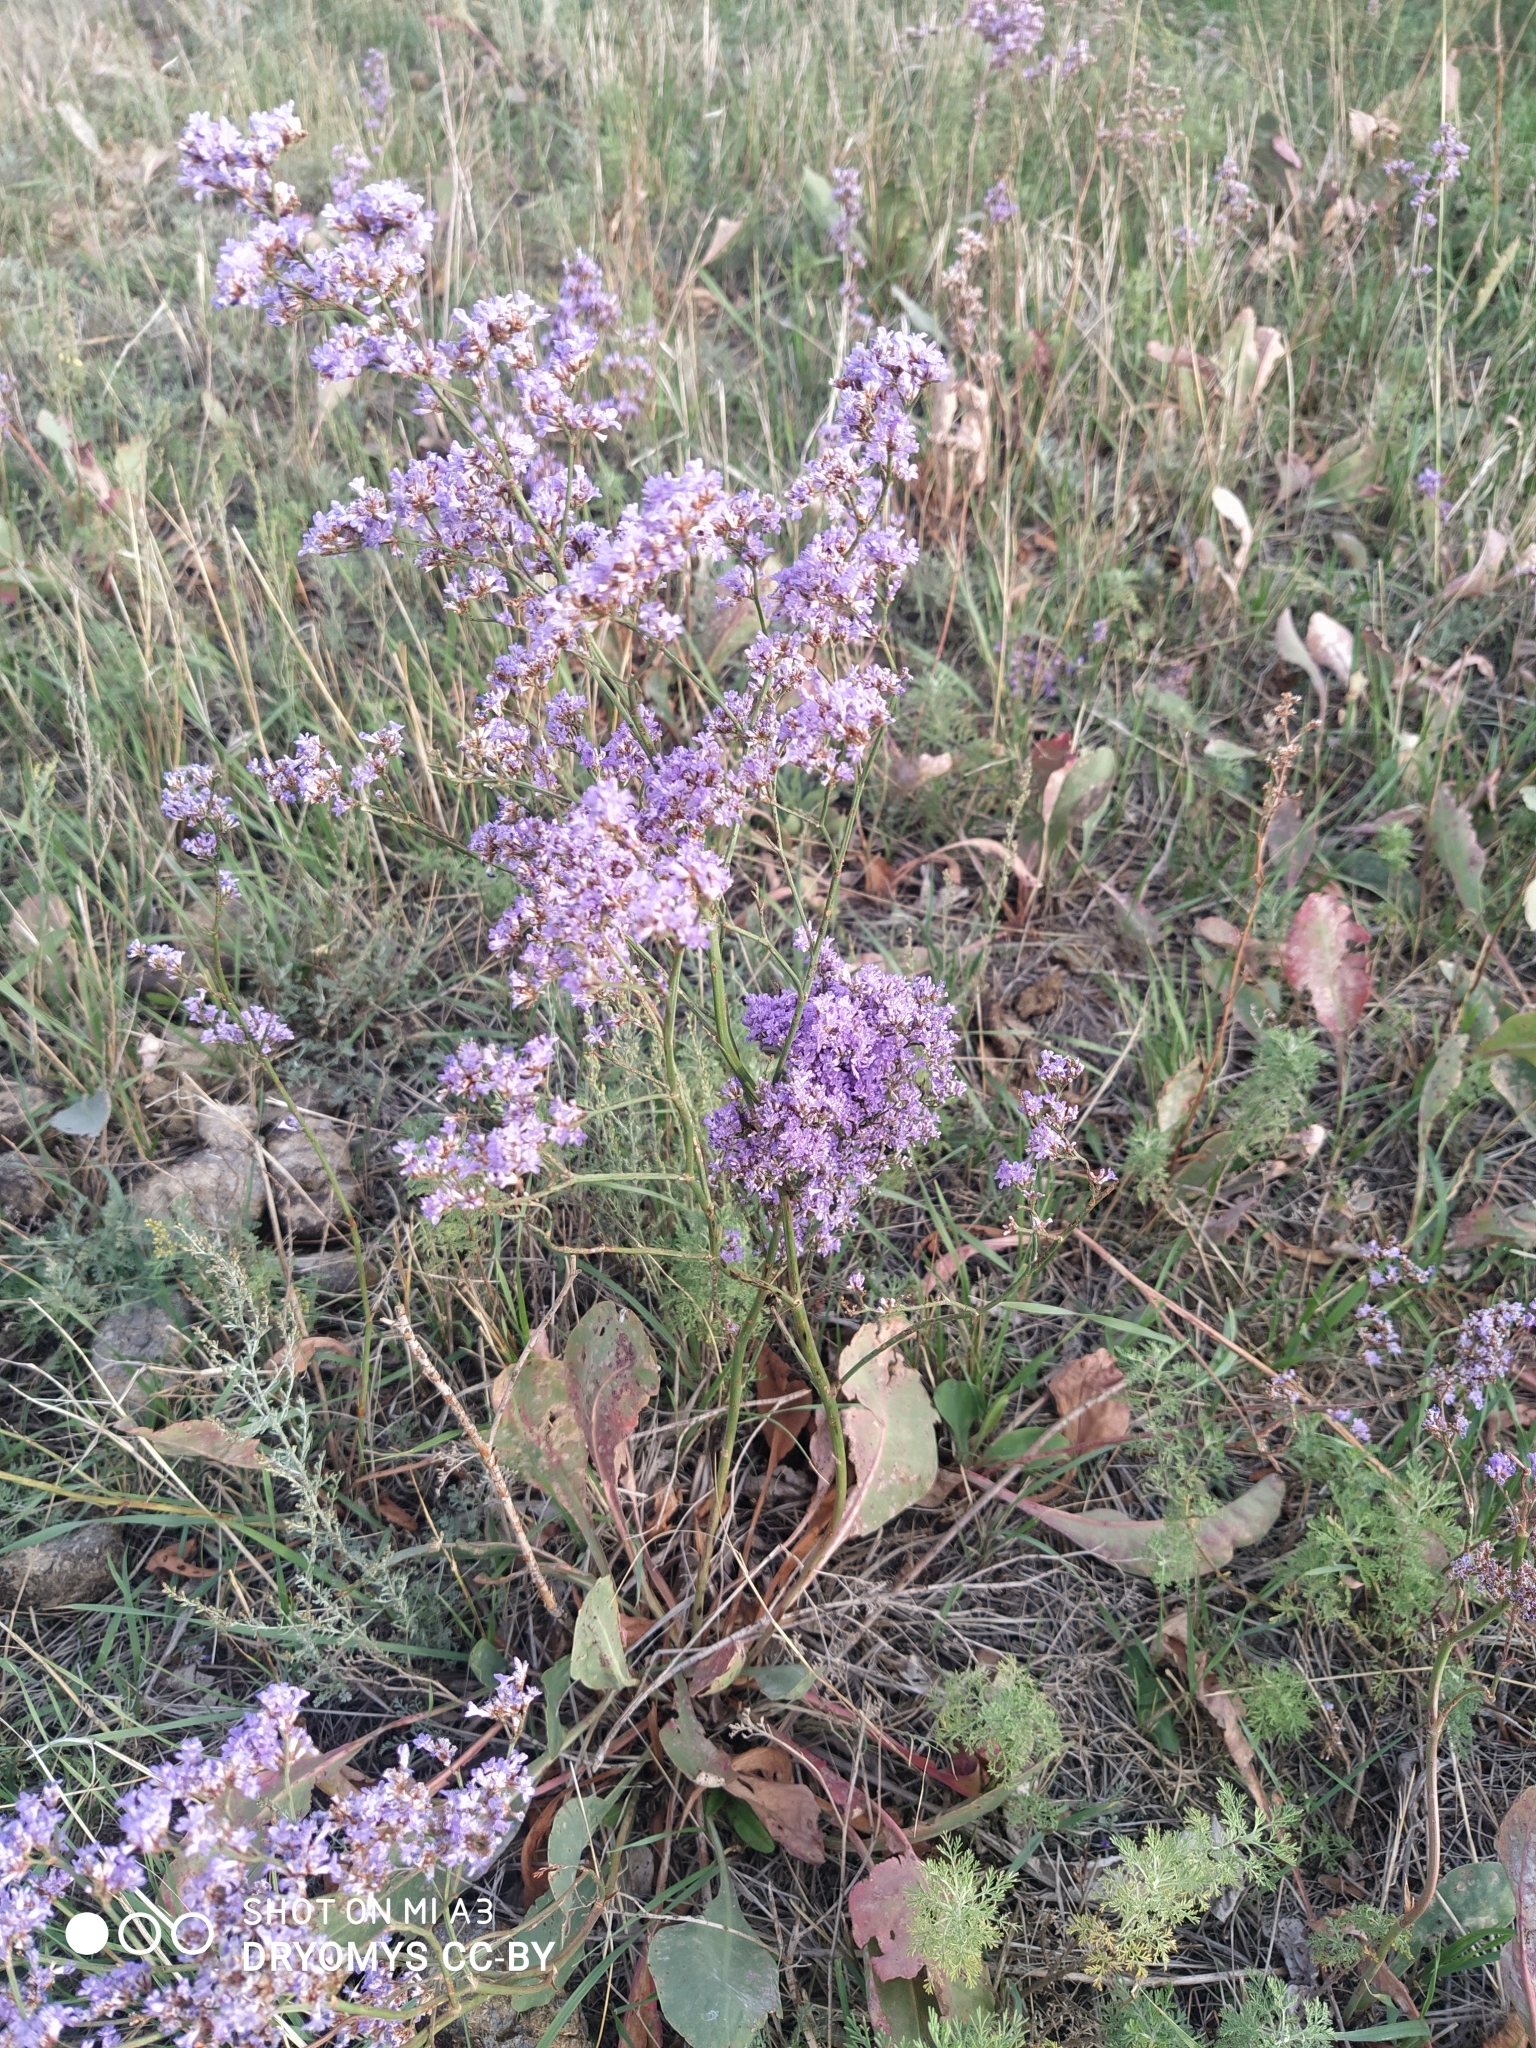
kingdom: Plantae
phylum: Tracheophyta
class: Magnoliopsida
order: Caryophyllales
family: Plumbaginaceae
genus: Limonium
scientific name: Limonium gmelini
